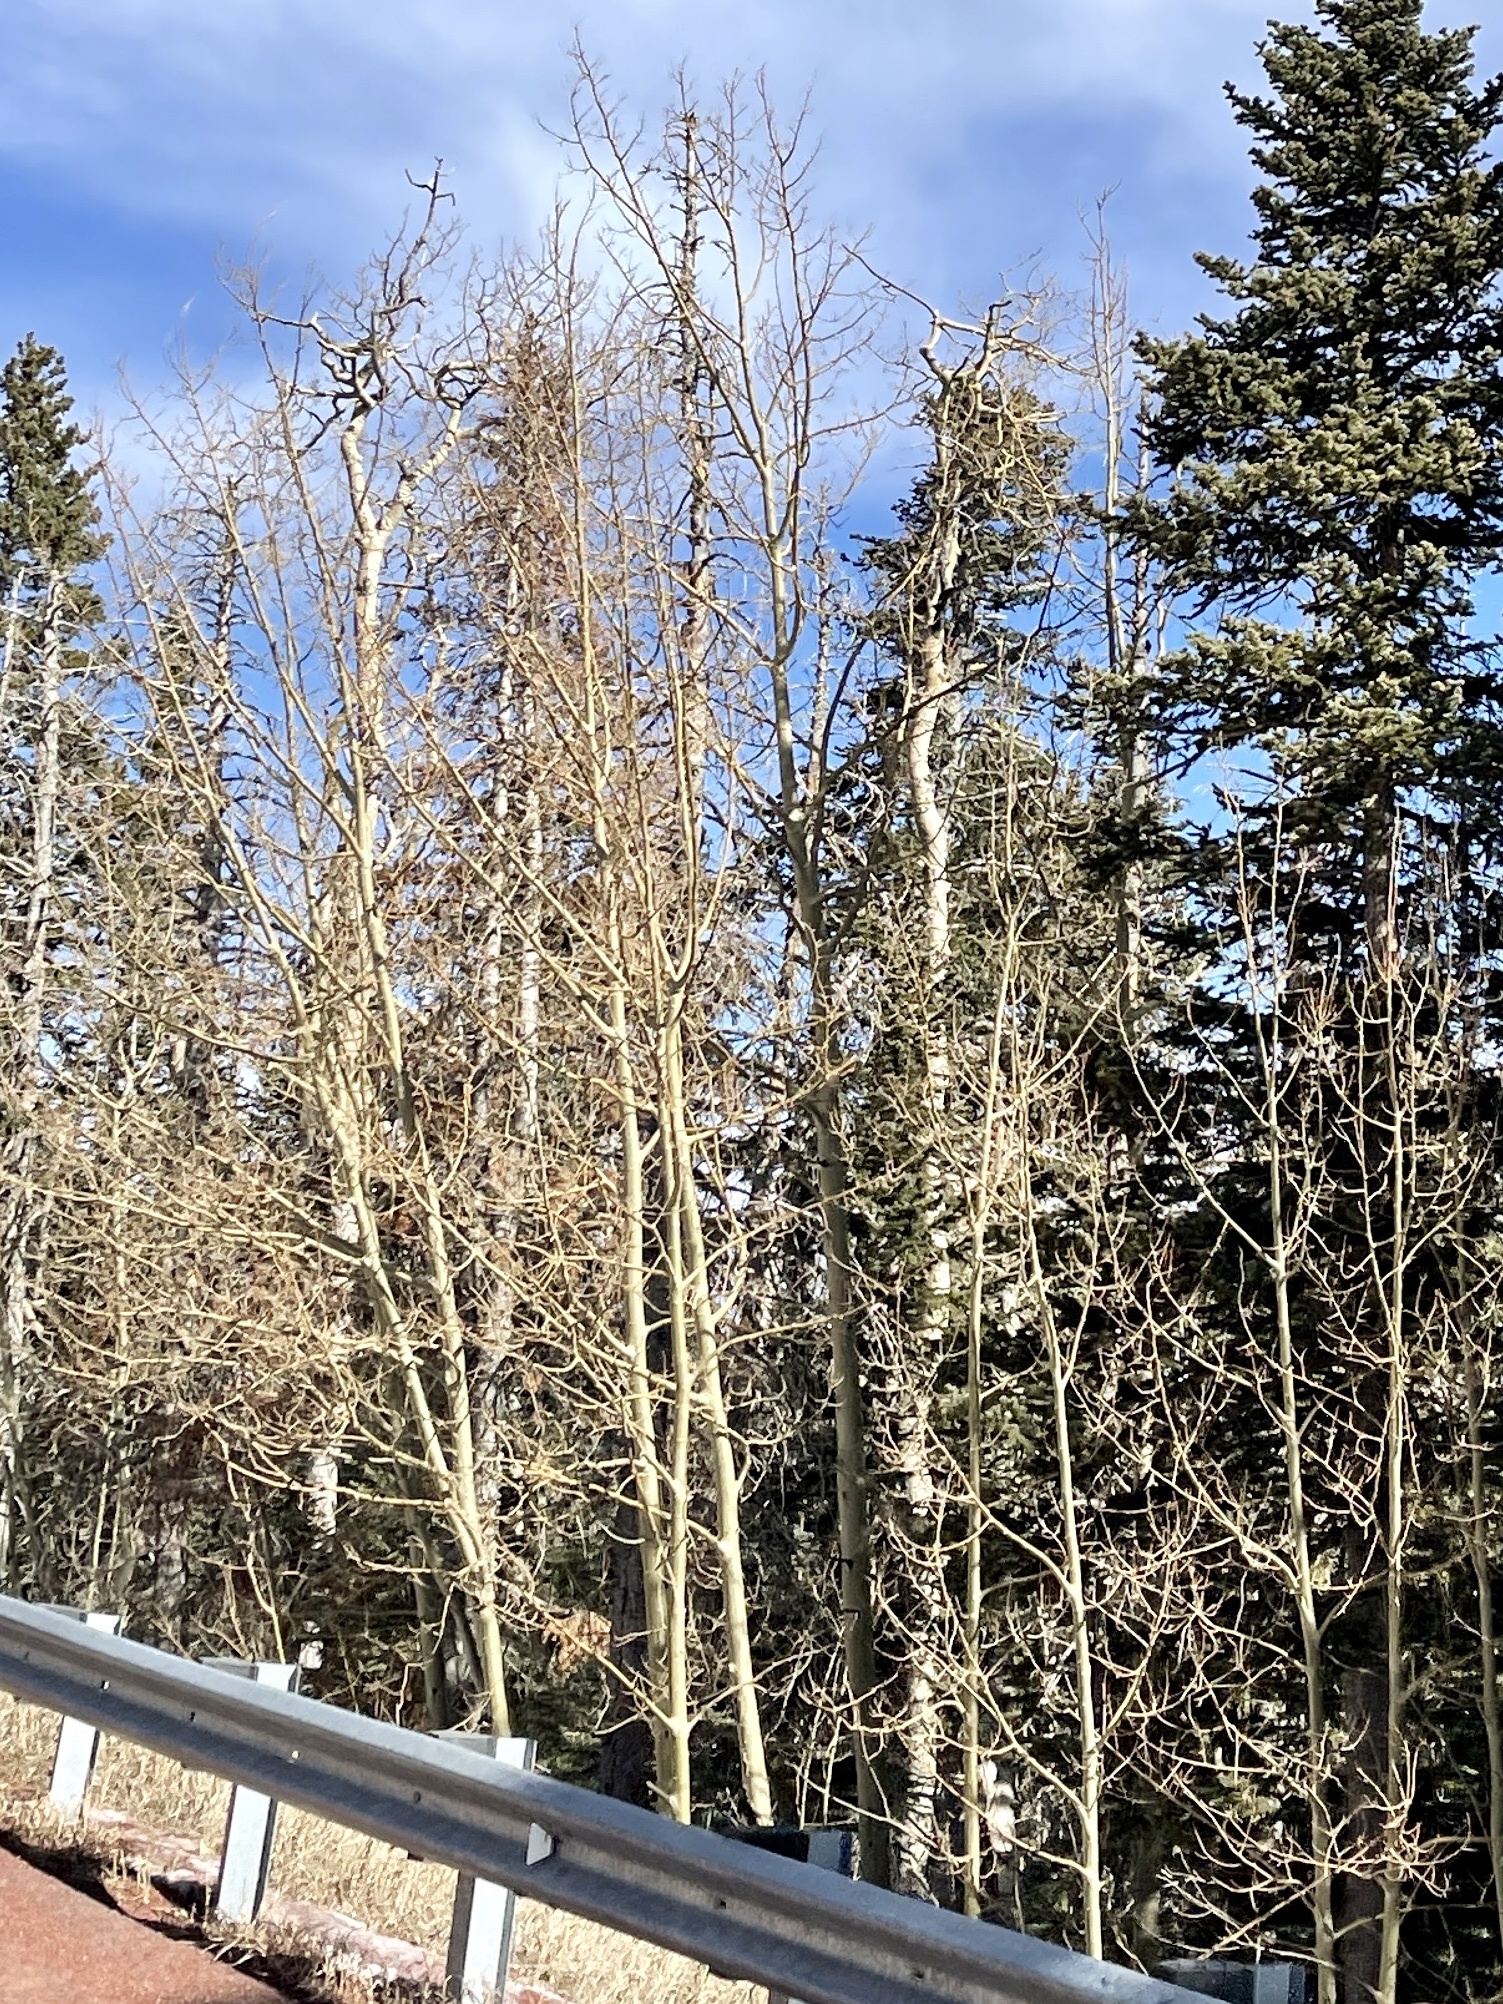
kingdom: Plantae
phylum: Tracheophyta
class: Magnoliopsida
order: Malpighiales
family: Salicaceae
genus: Populus
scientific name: Populus tremuloides
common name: Quaking aspen
